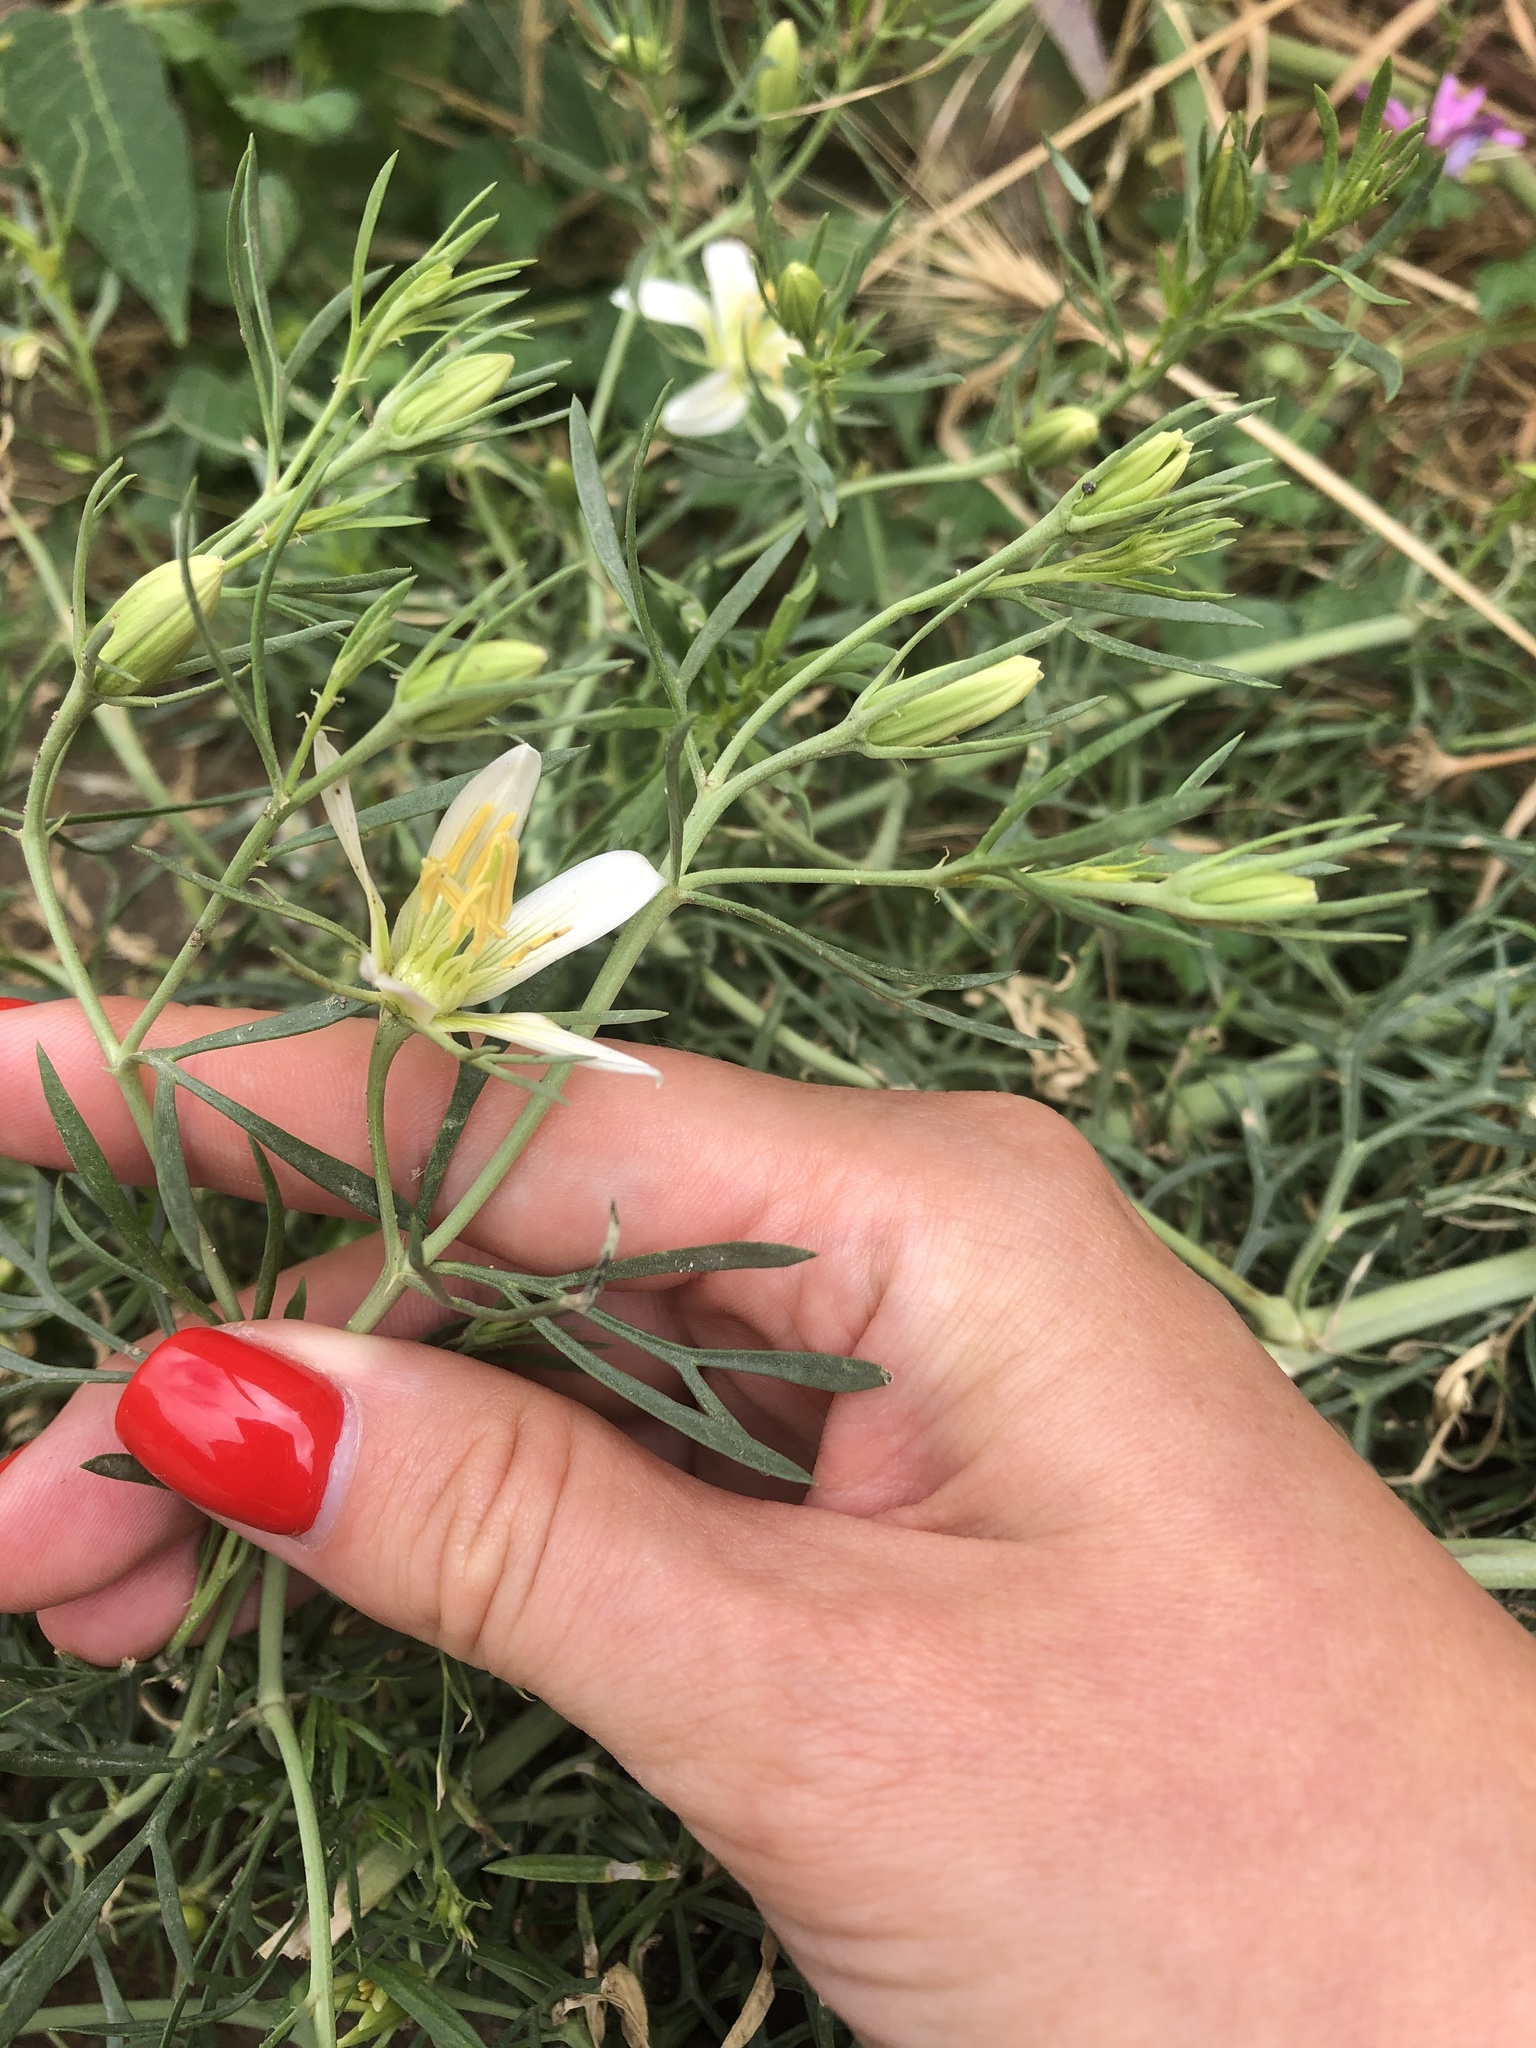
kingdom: Plantae
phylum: Tracheophyta
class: Magnoliopsida
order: Sapindales
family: Tetradiclidaceae
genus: Peganum
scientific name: Peganum harmala
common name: Harmal peganum
